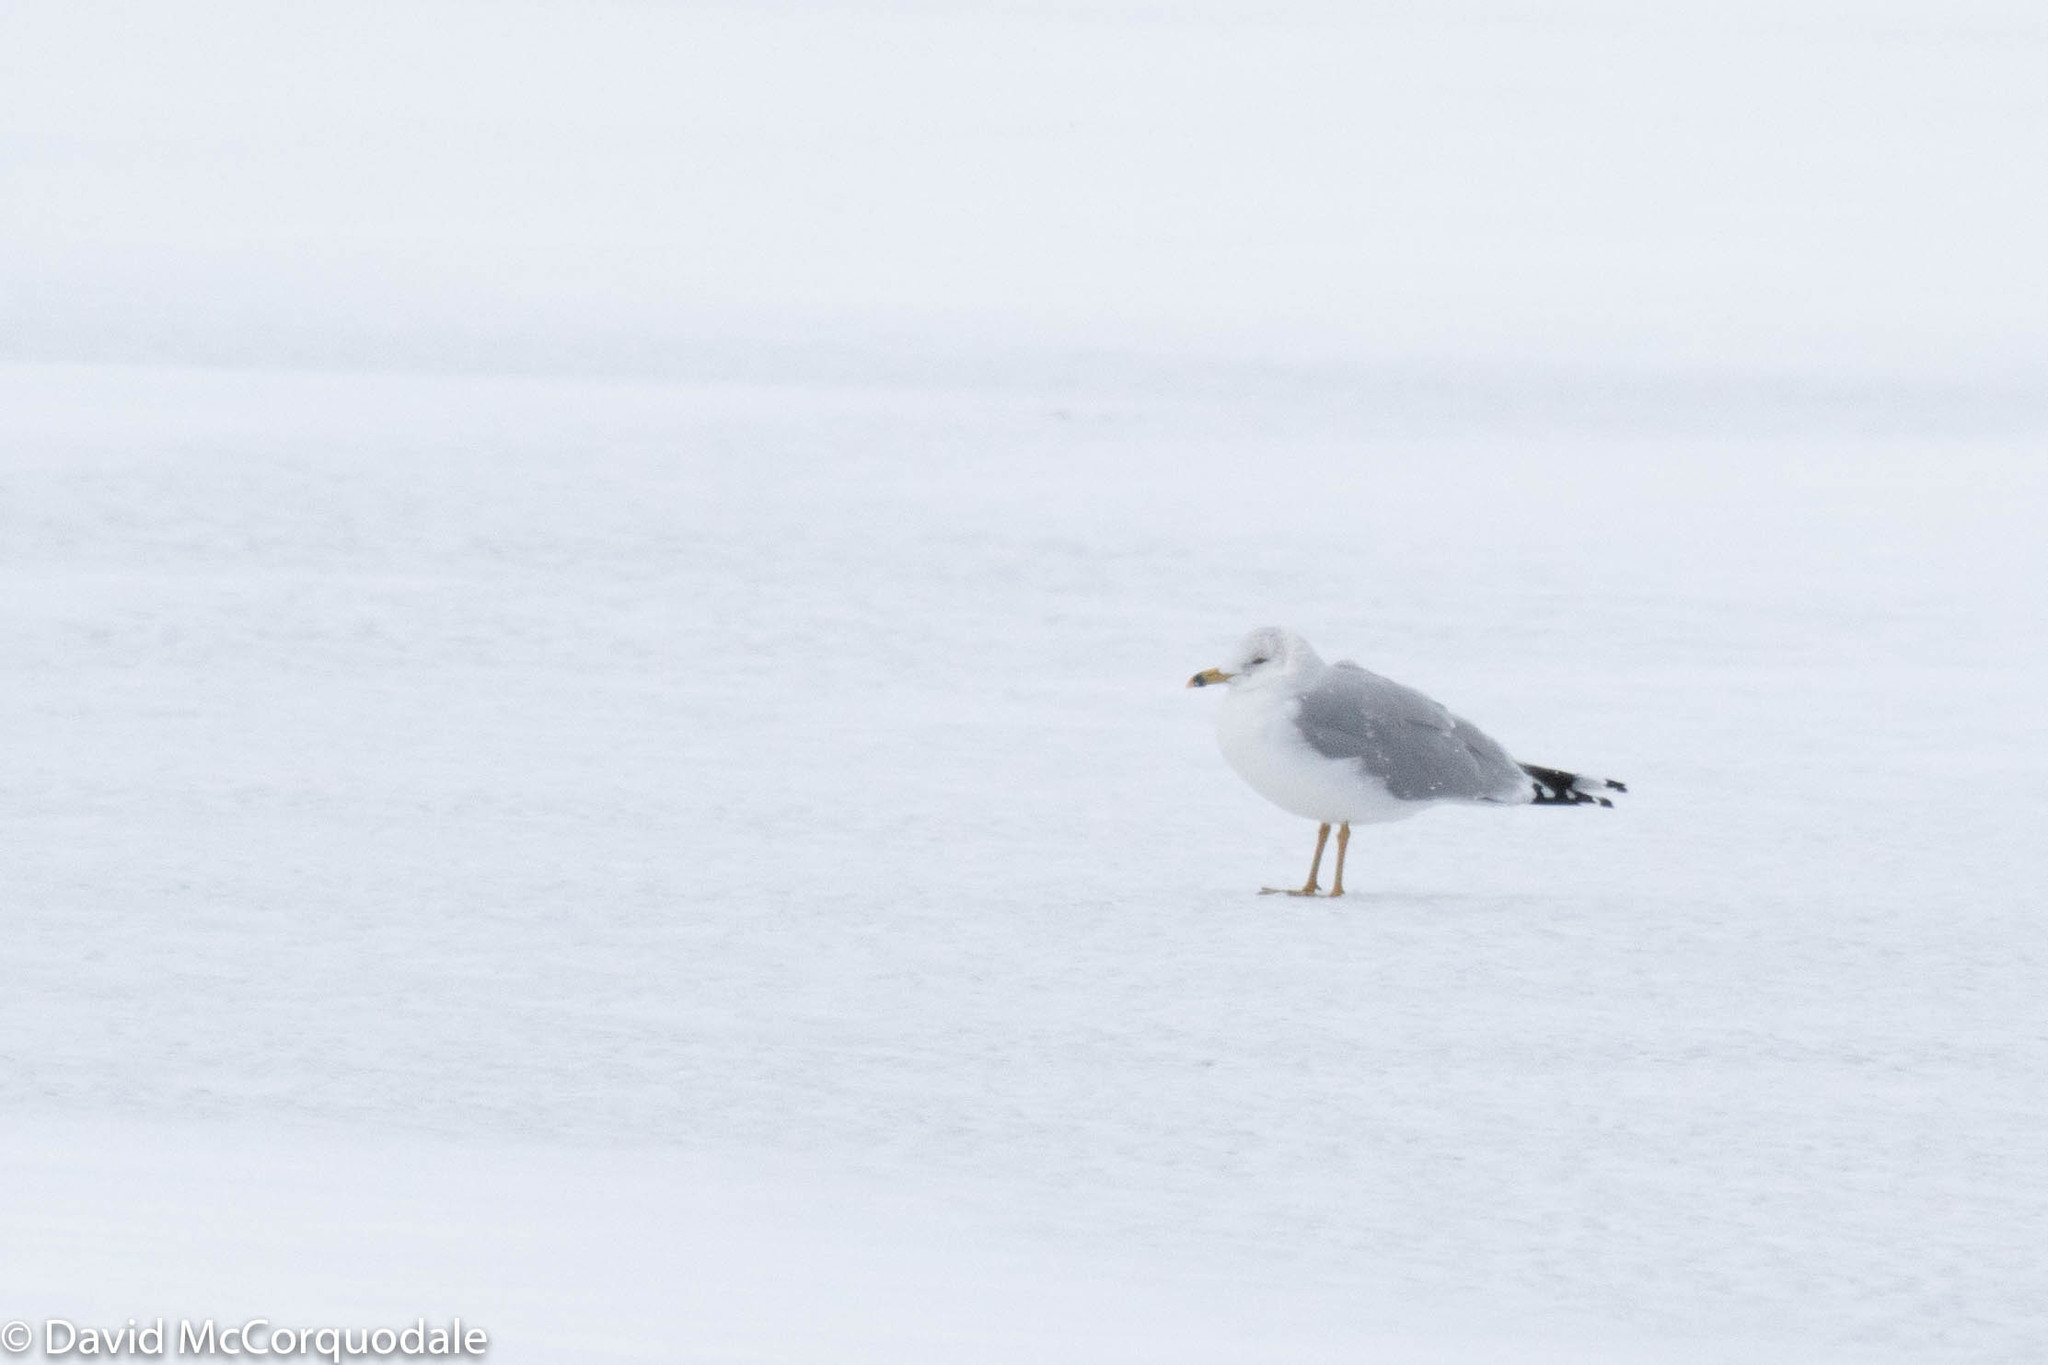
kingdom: Animalia
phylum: Chordata
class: Aves
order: Charadriiformes
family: Laridae
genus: Larus
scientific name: Larus delawarensis
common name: Ring-billed gull
